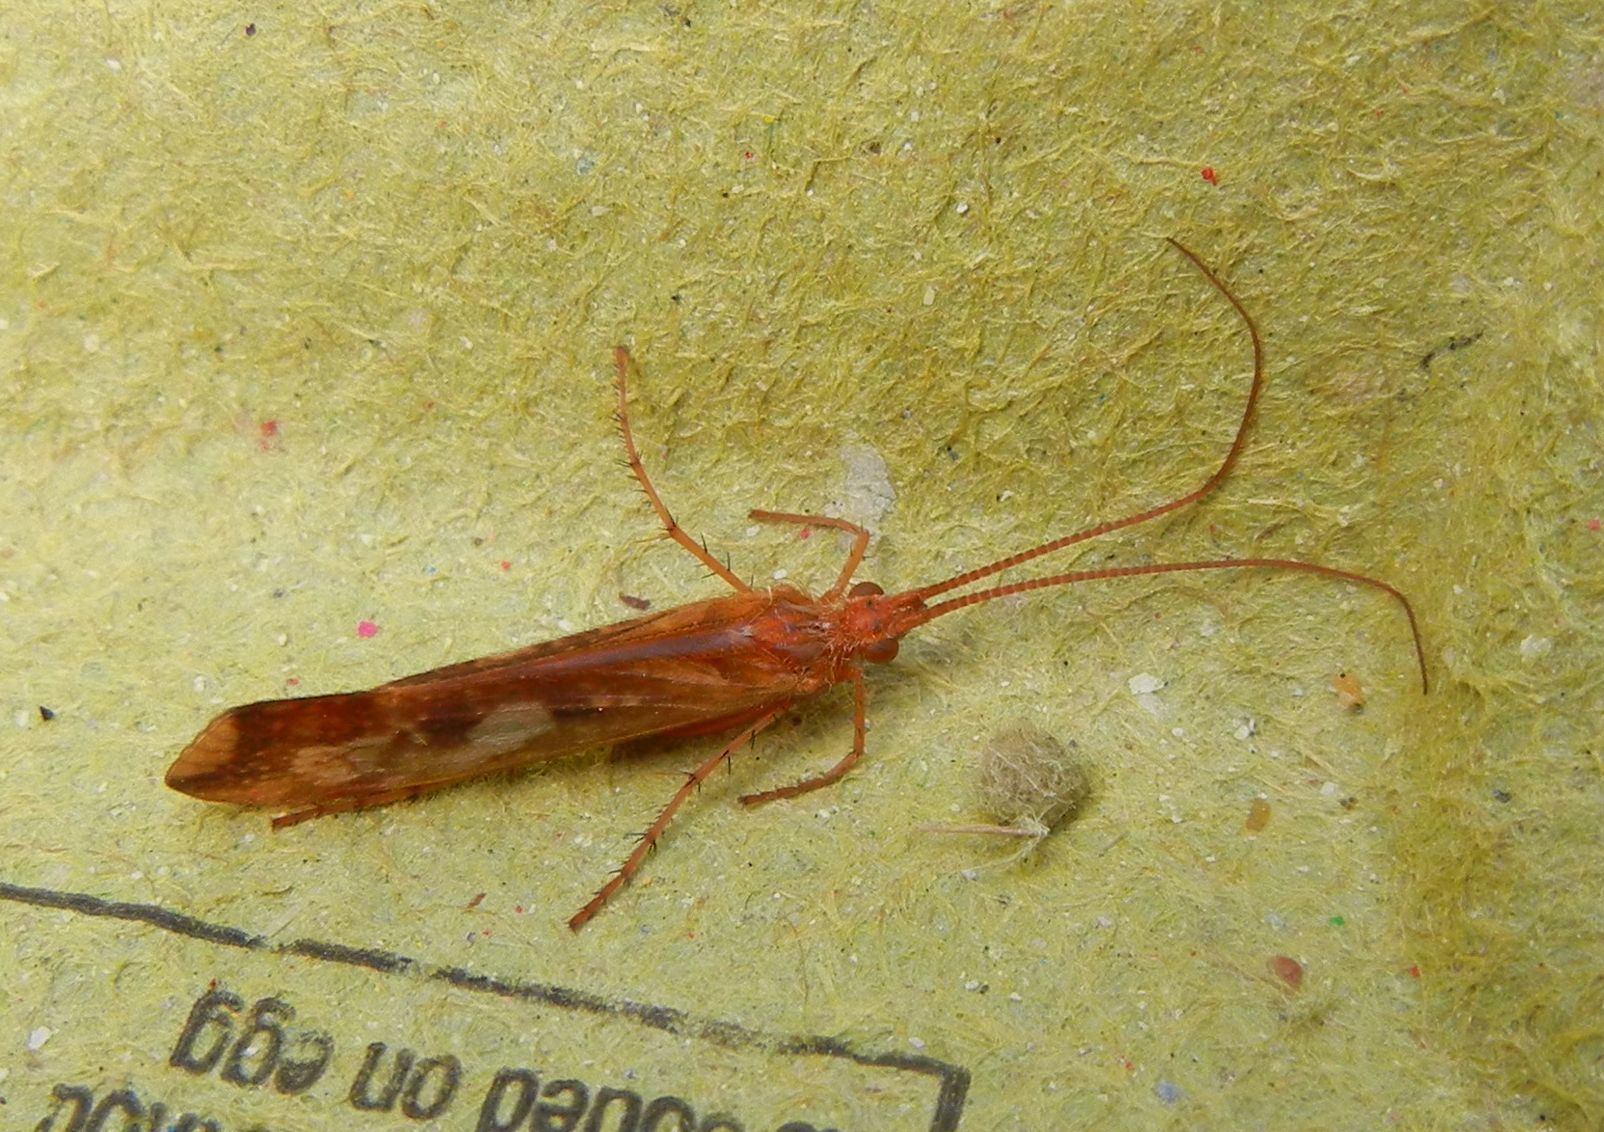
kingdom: Animalia
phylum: Arthropoda
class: Insecta
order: Trichoptera
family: Limnephilidae
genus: Limnephilus
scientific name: Limnephilus lunatus
